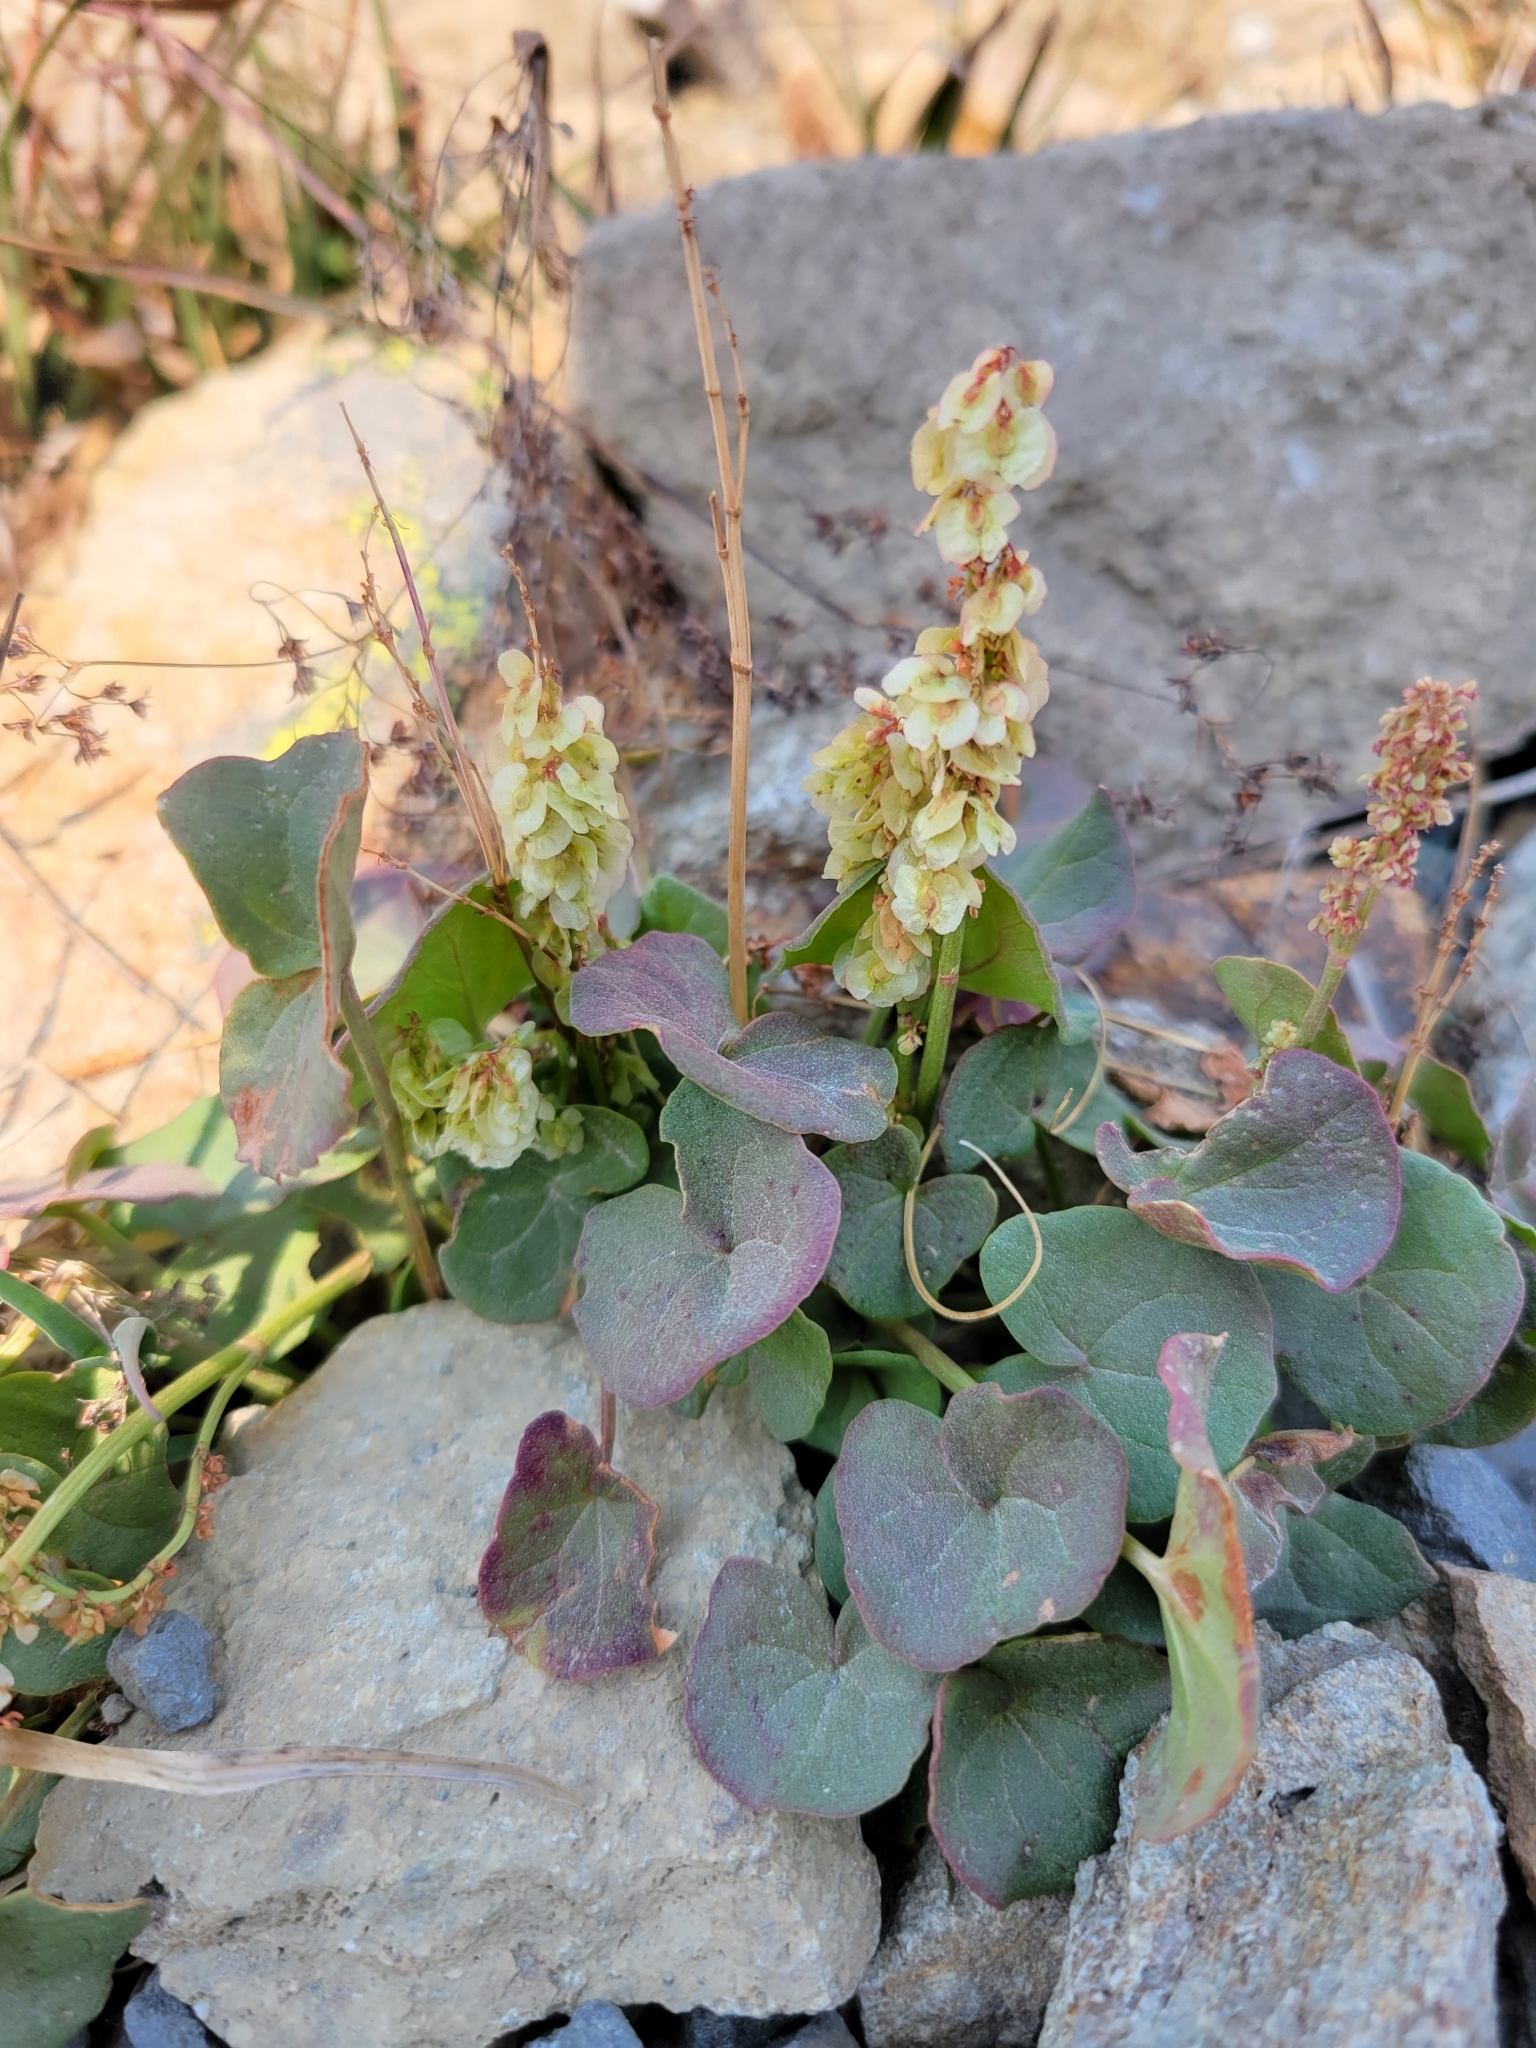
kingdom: Plantae
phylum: Tracheophyta
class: Magnoliopsida
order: Caryophyllales
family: Polygonaceae
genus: Oxyria
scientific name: Oxyria digyna
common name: Alpine mountain-sorrel
